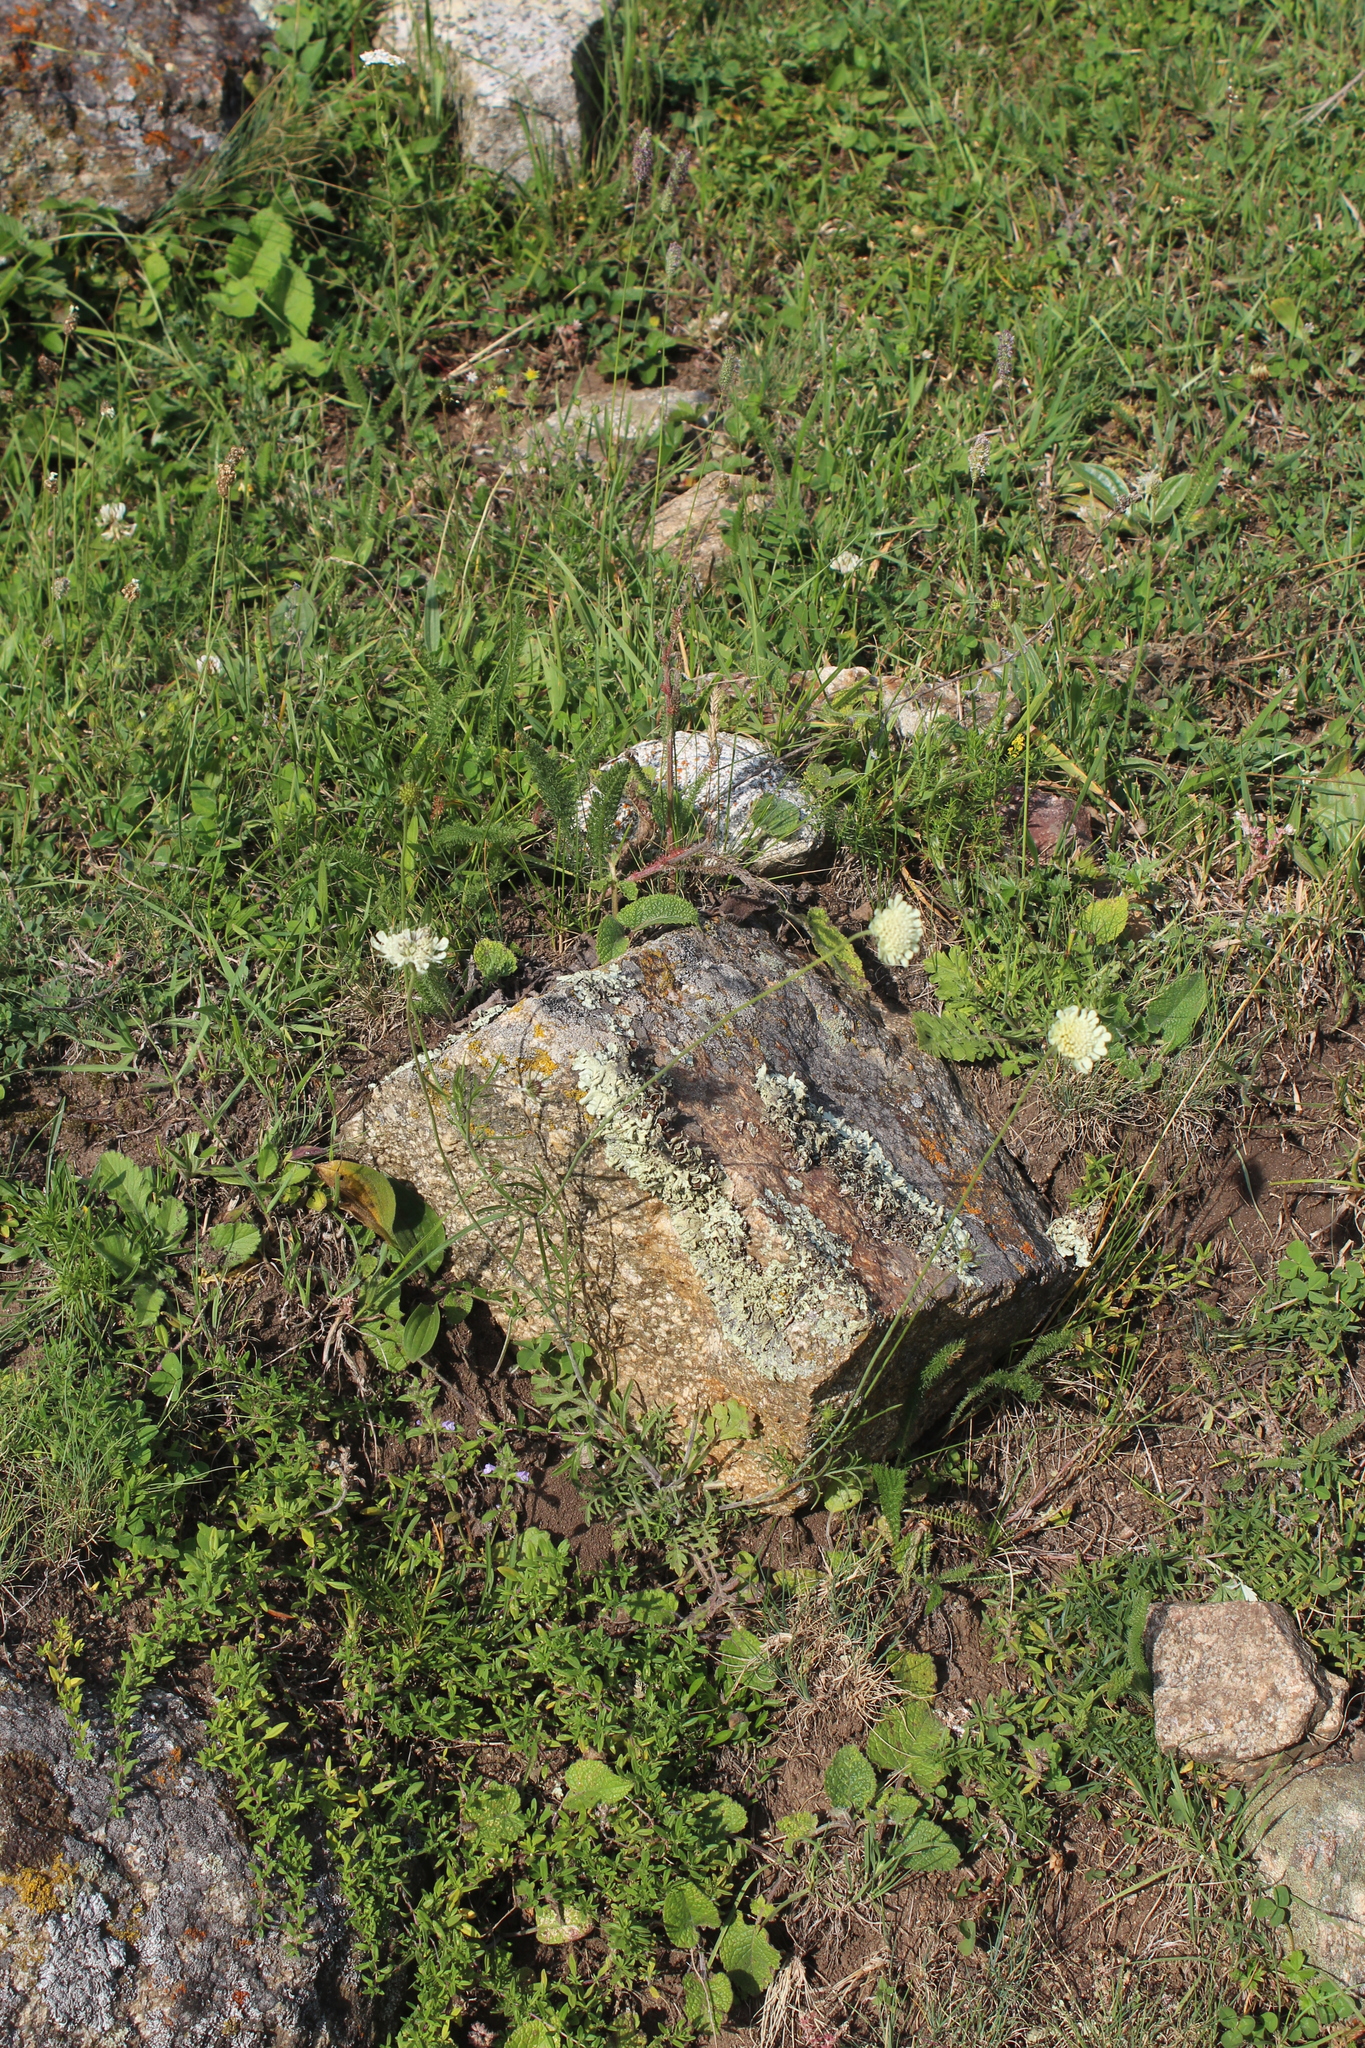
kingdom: Plantae
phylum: Tracheophyta
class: Magnoliopsida
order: Dipsacales
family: Caprifoliaceae
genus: Scabiosa
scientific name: Scabiosa bipinnata
